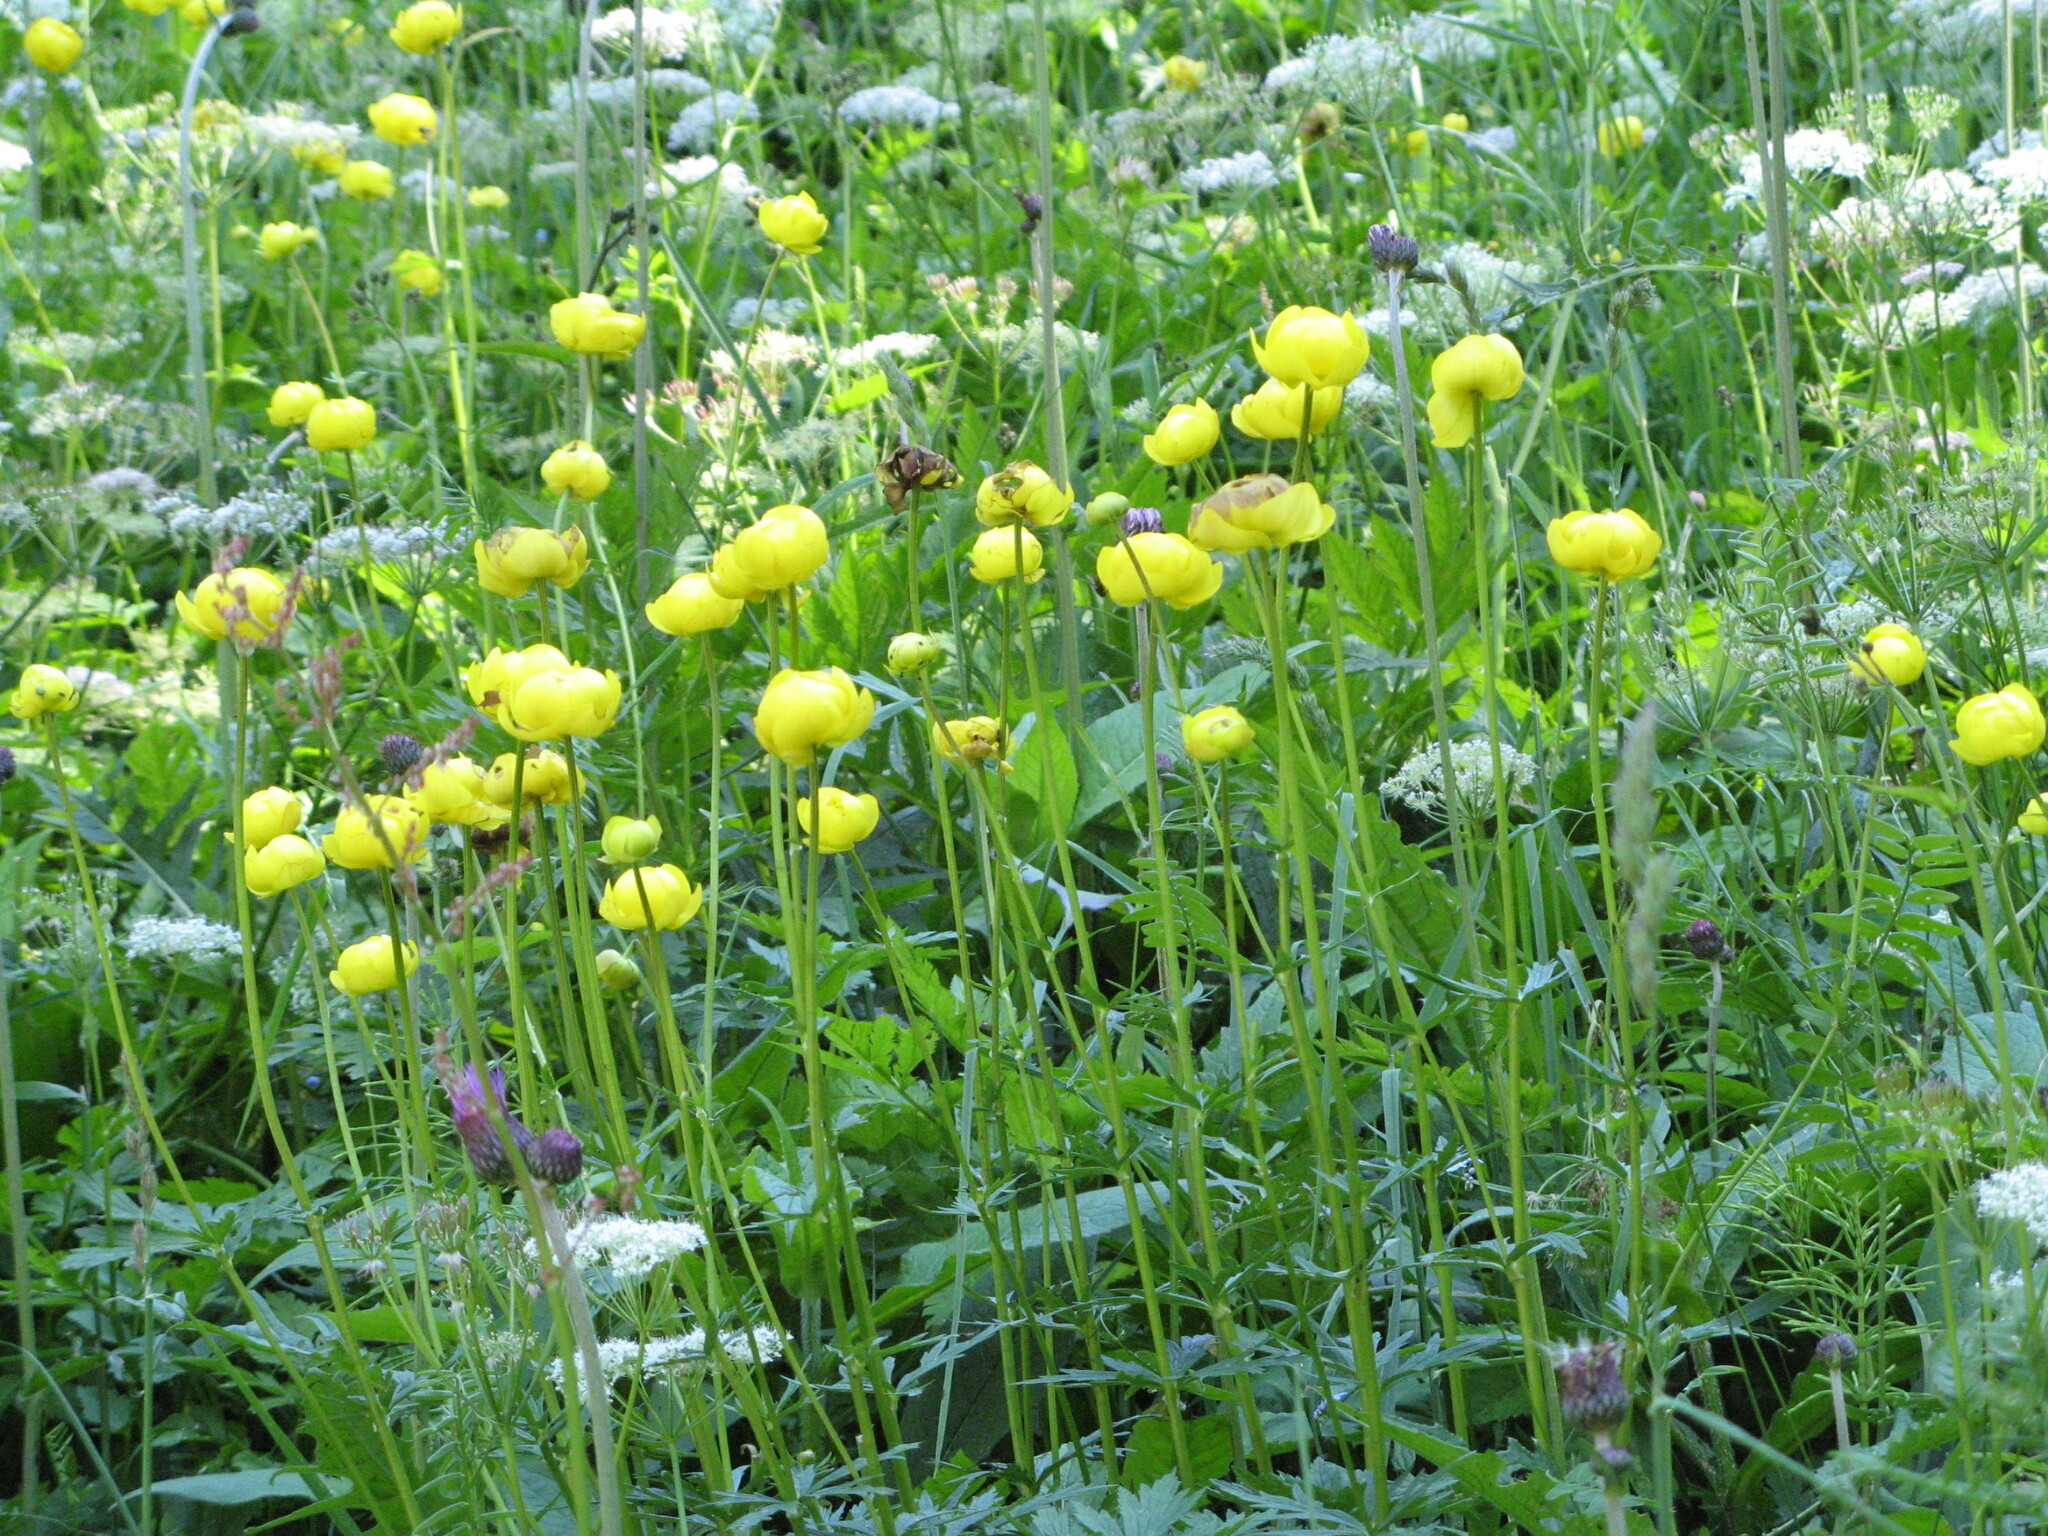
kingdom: Plantae
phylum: Tracheophyta
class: Magnoliopsida
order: Ranunculales
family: Ranunculaceae
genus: Trollius
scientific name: Trollius europaeus
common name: European globeflower
